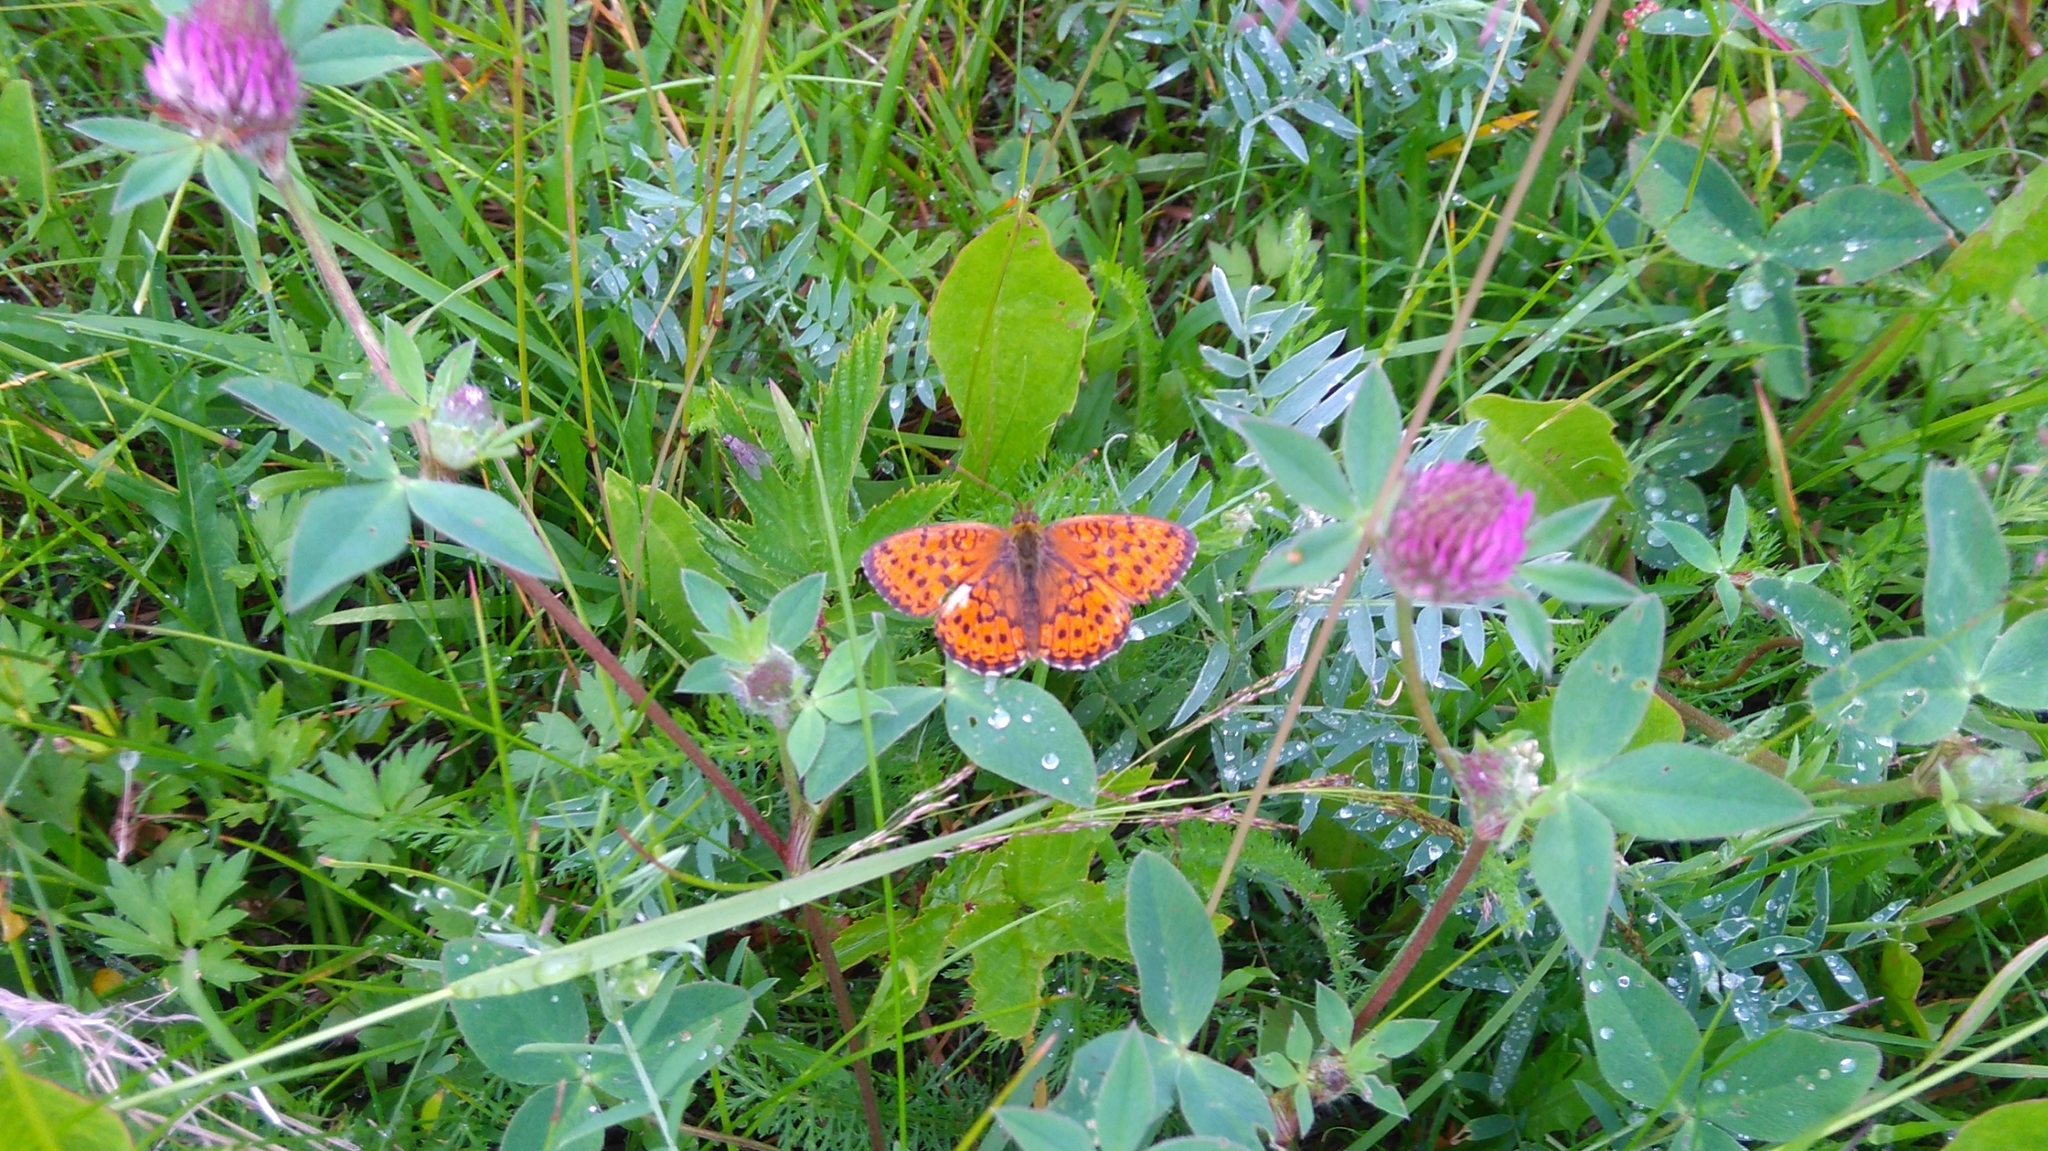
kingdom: Animalia
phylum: Arthropoda
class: Insecta
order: Lepidoptera
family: Nymphalidae
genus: Brenthis
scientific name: Brenthis ino
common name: Lesser marbled fritillary
